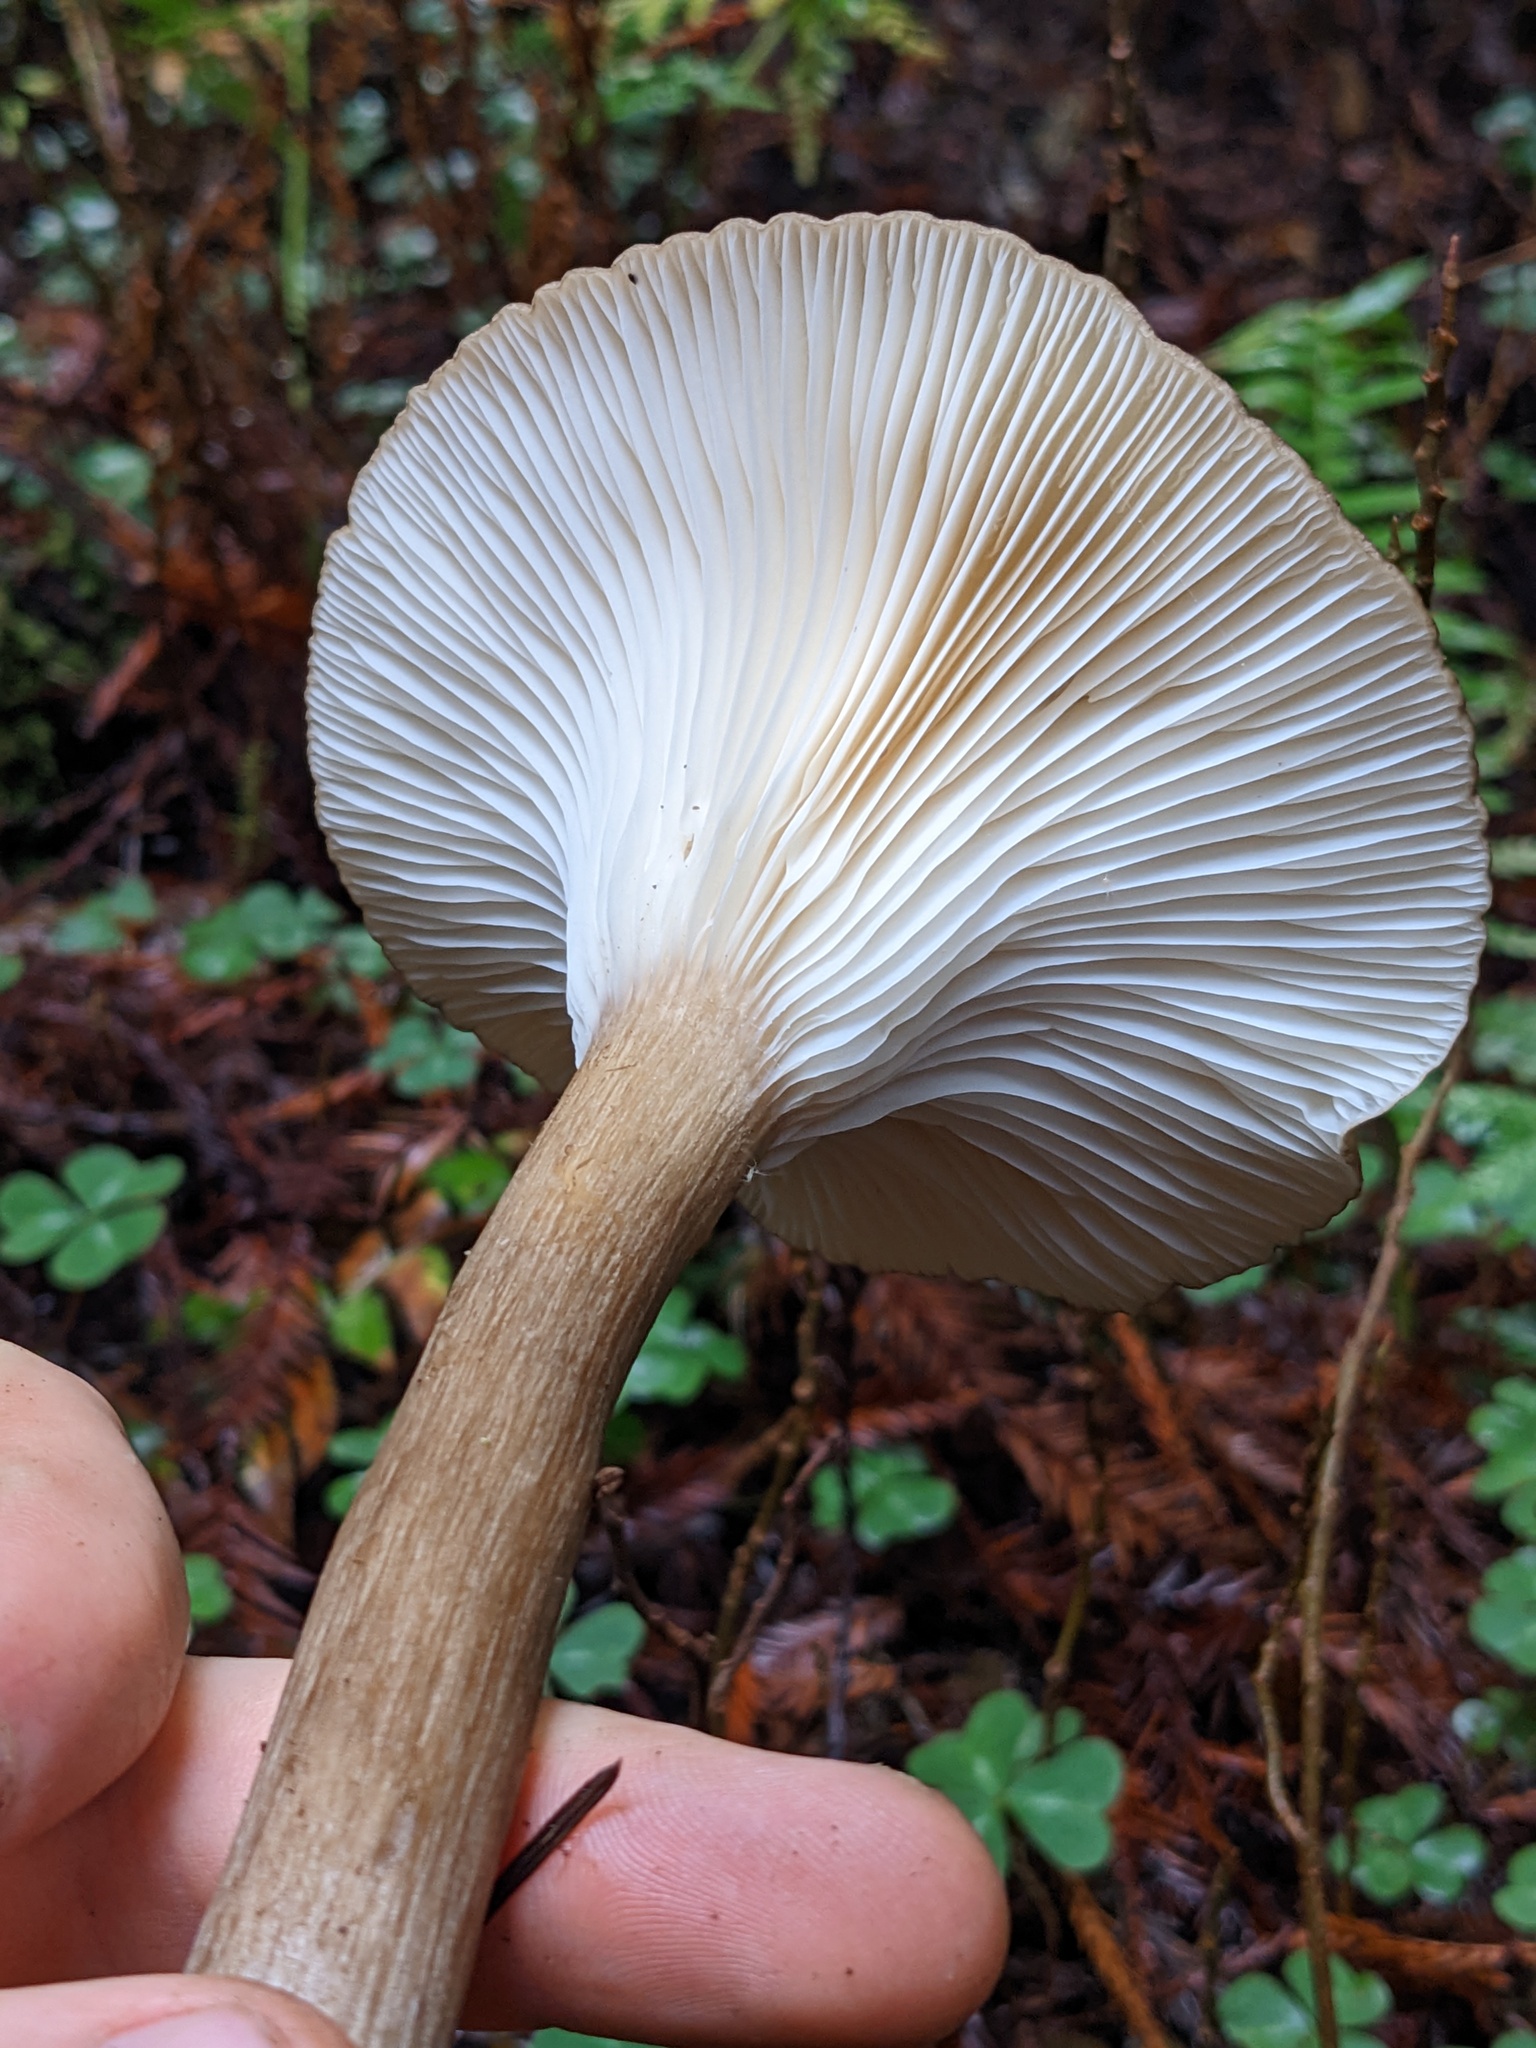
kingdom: Fungi
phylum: Basidiomycota
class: Agaricomycetes
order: Agaricales
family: Hygrophoraceae
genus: Ampulloclitocybe
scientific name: Ampulloclitocybe avellaneialba
